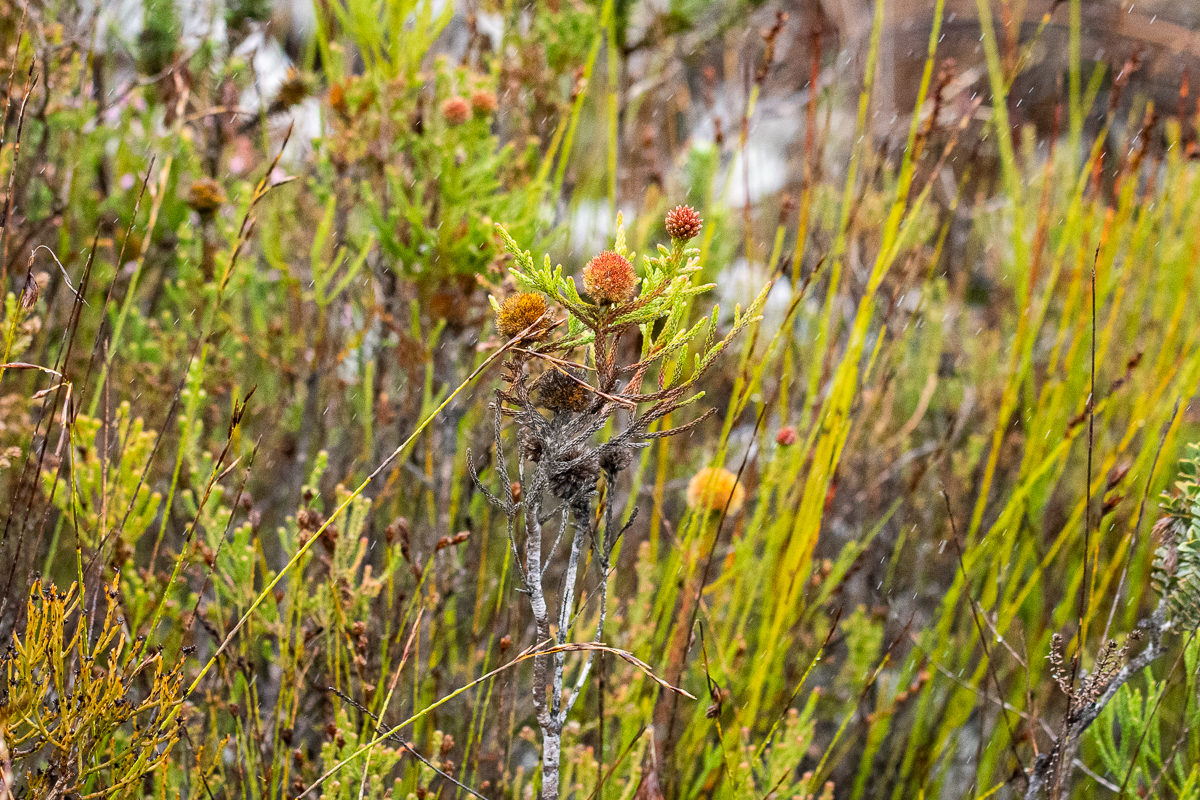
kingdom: Plantae
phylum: Tracheophyta
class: Magnoliopsida
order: Bruniales
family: Bruniaceae
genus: Brunia
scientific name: Brunia fragarioides
